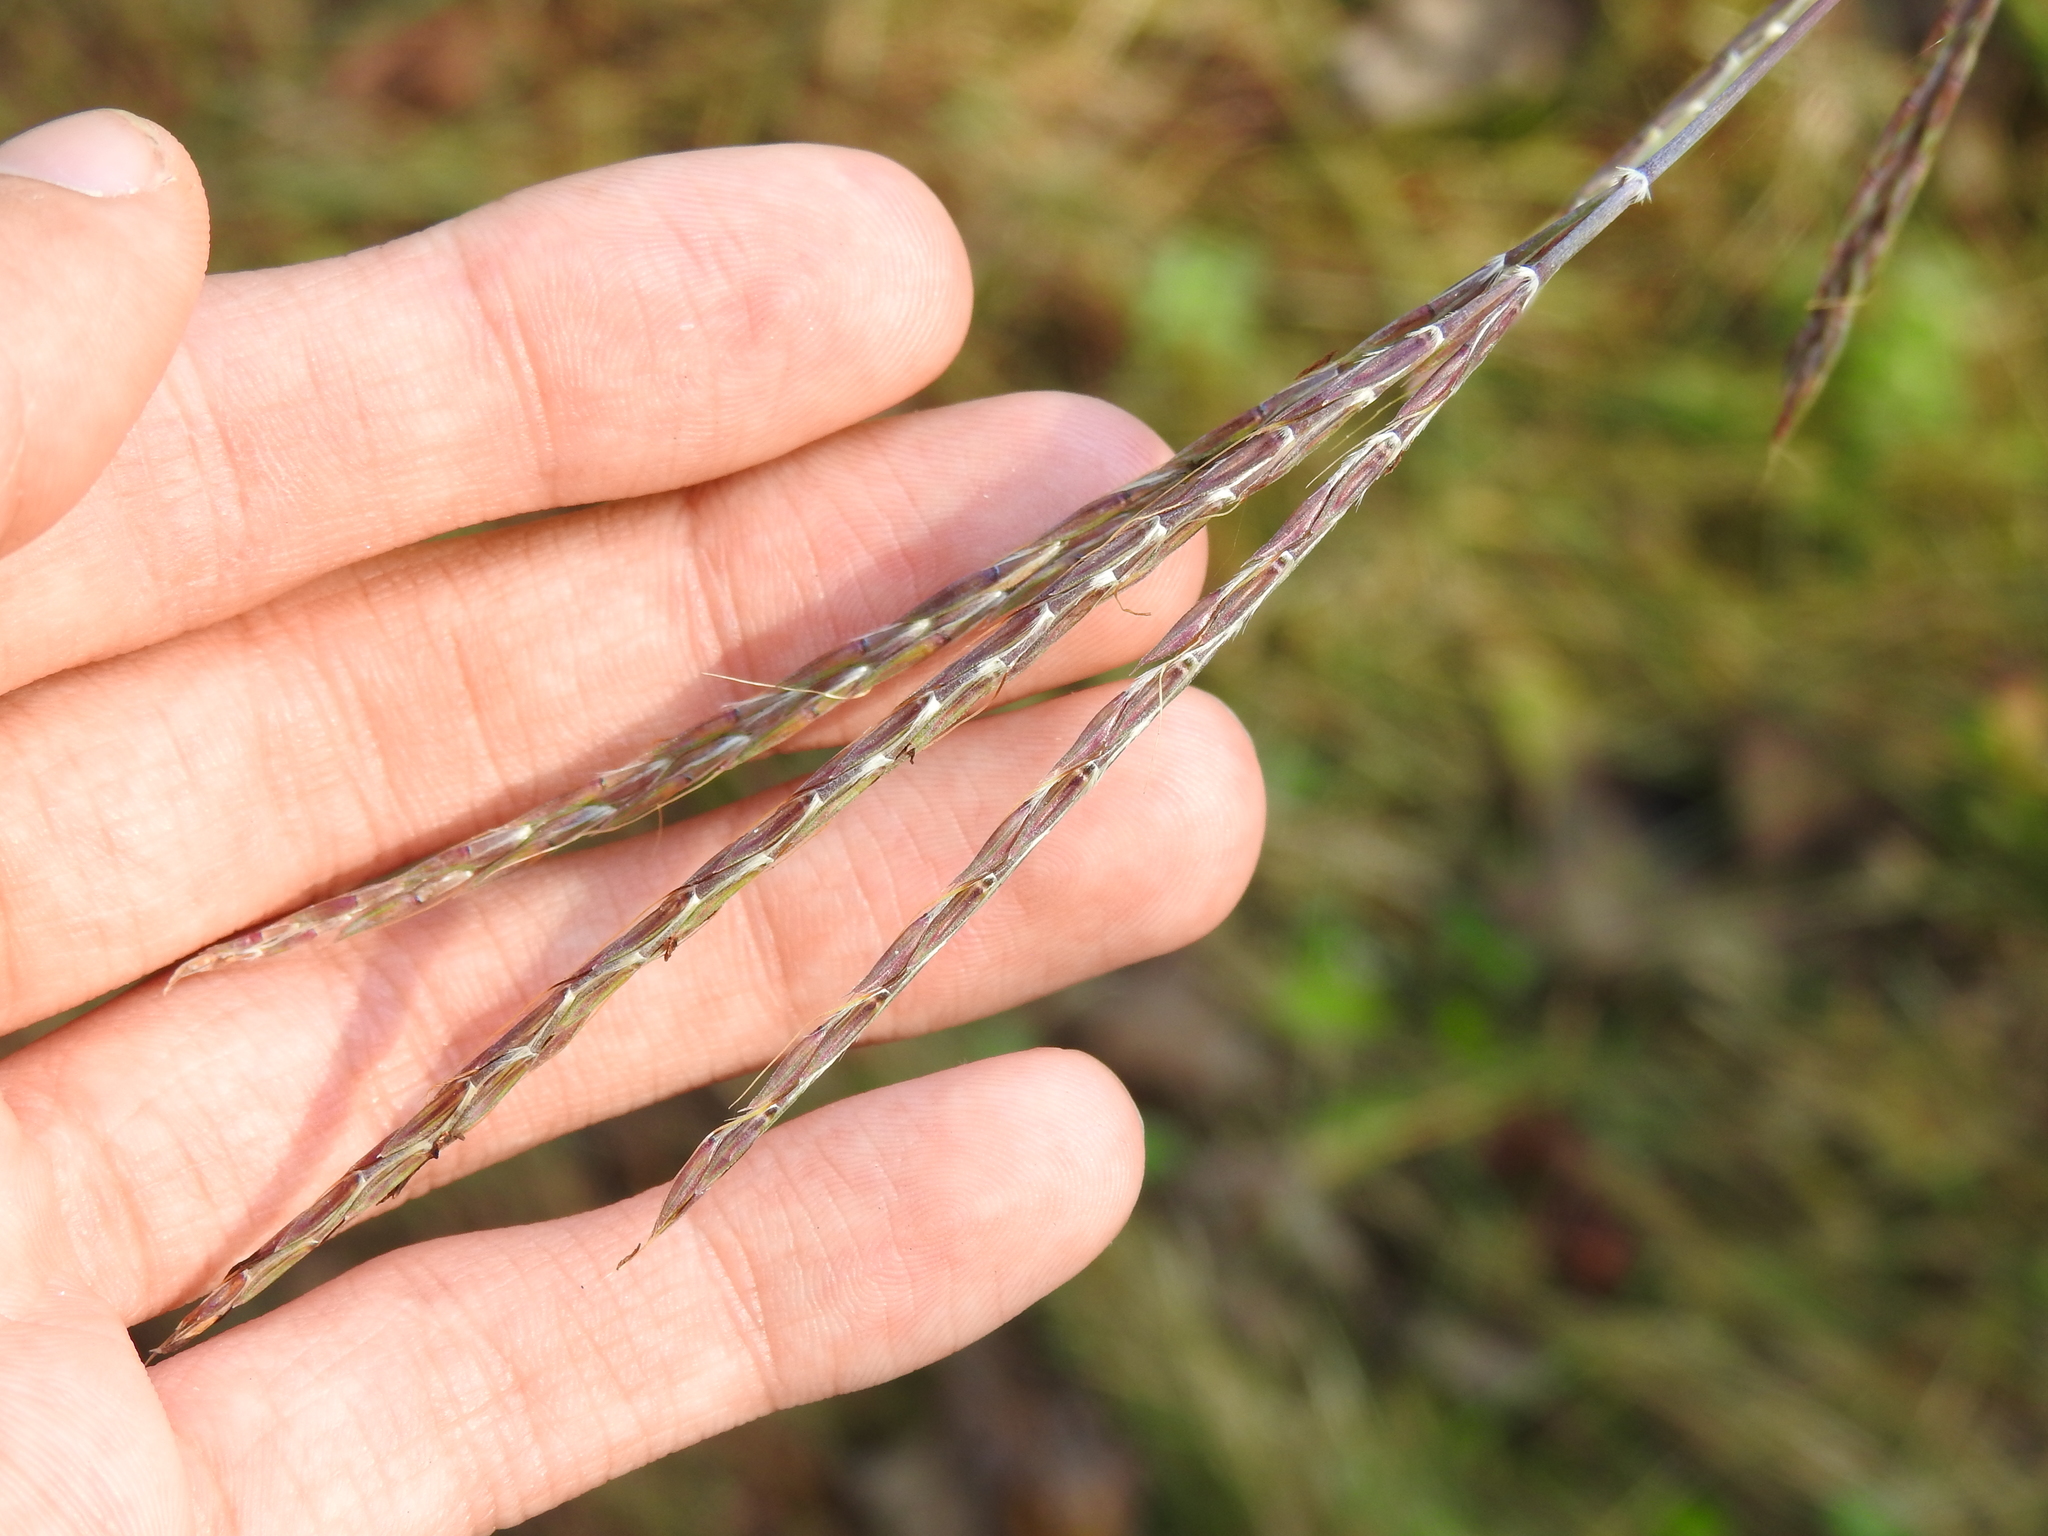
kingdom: Plantae
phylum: Tracheophyta
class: Liliopsida
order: Poales
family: Poaceae
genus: Andropogon
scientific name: Andropogon gerardi
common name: Big bluestem
